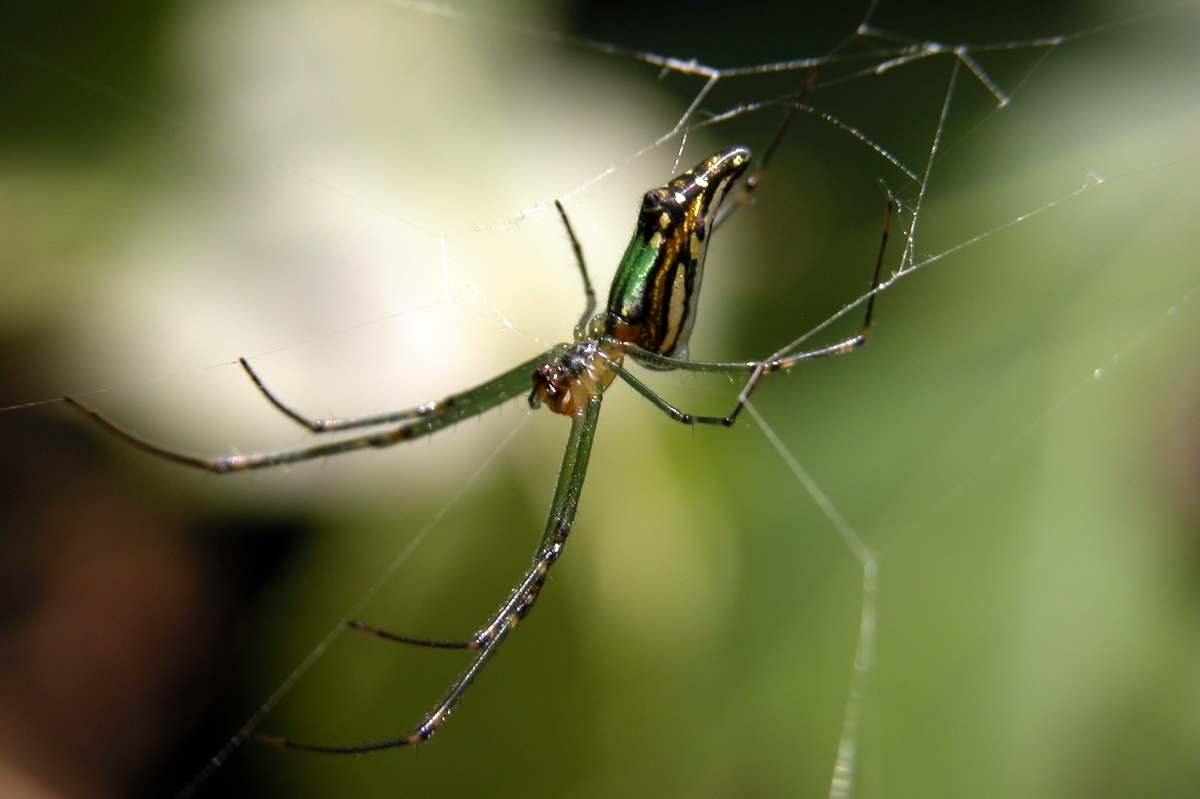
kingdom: Animalia
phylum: Arthropoda
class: Arachnida
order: Araneae
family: Tetragnathidae
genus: Leucauge
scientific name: Leucauge decorata
